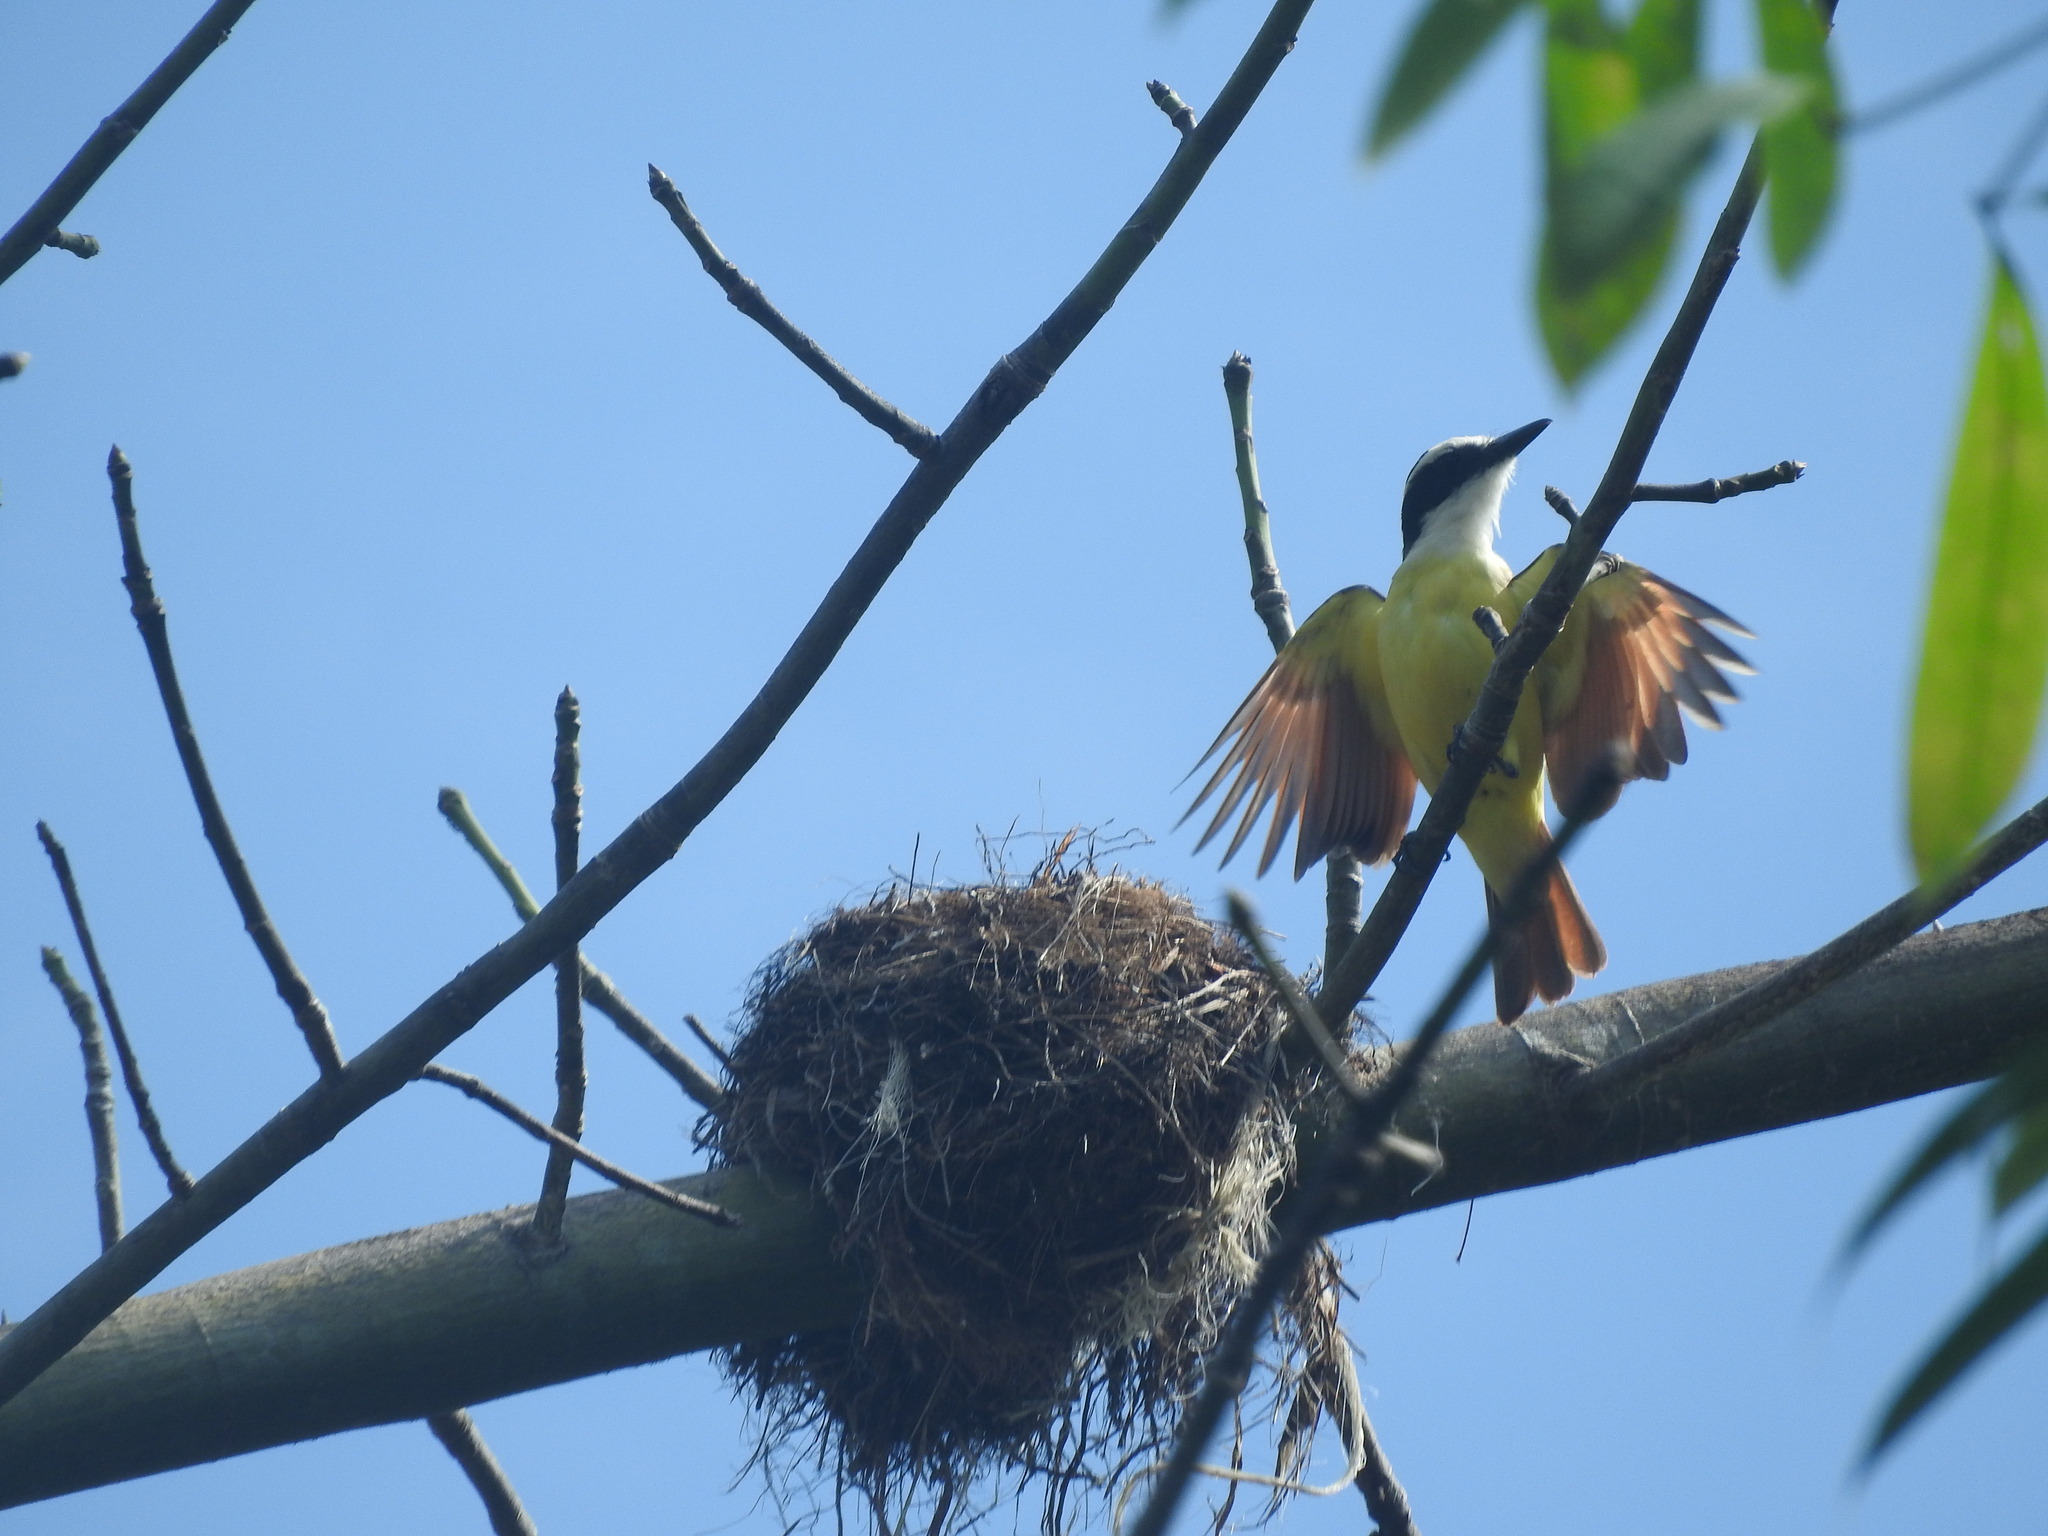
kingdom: Animalia
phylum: Chordata
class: Aves
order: Passeriformes
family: Tyrannidae
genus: Pitangus
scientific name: Pitangus sulphuratus
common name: Great kiskadee
